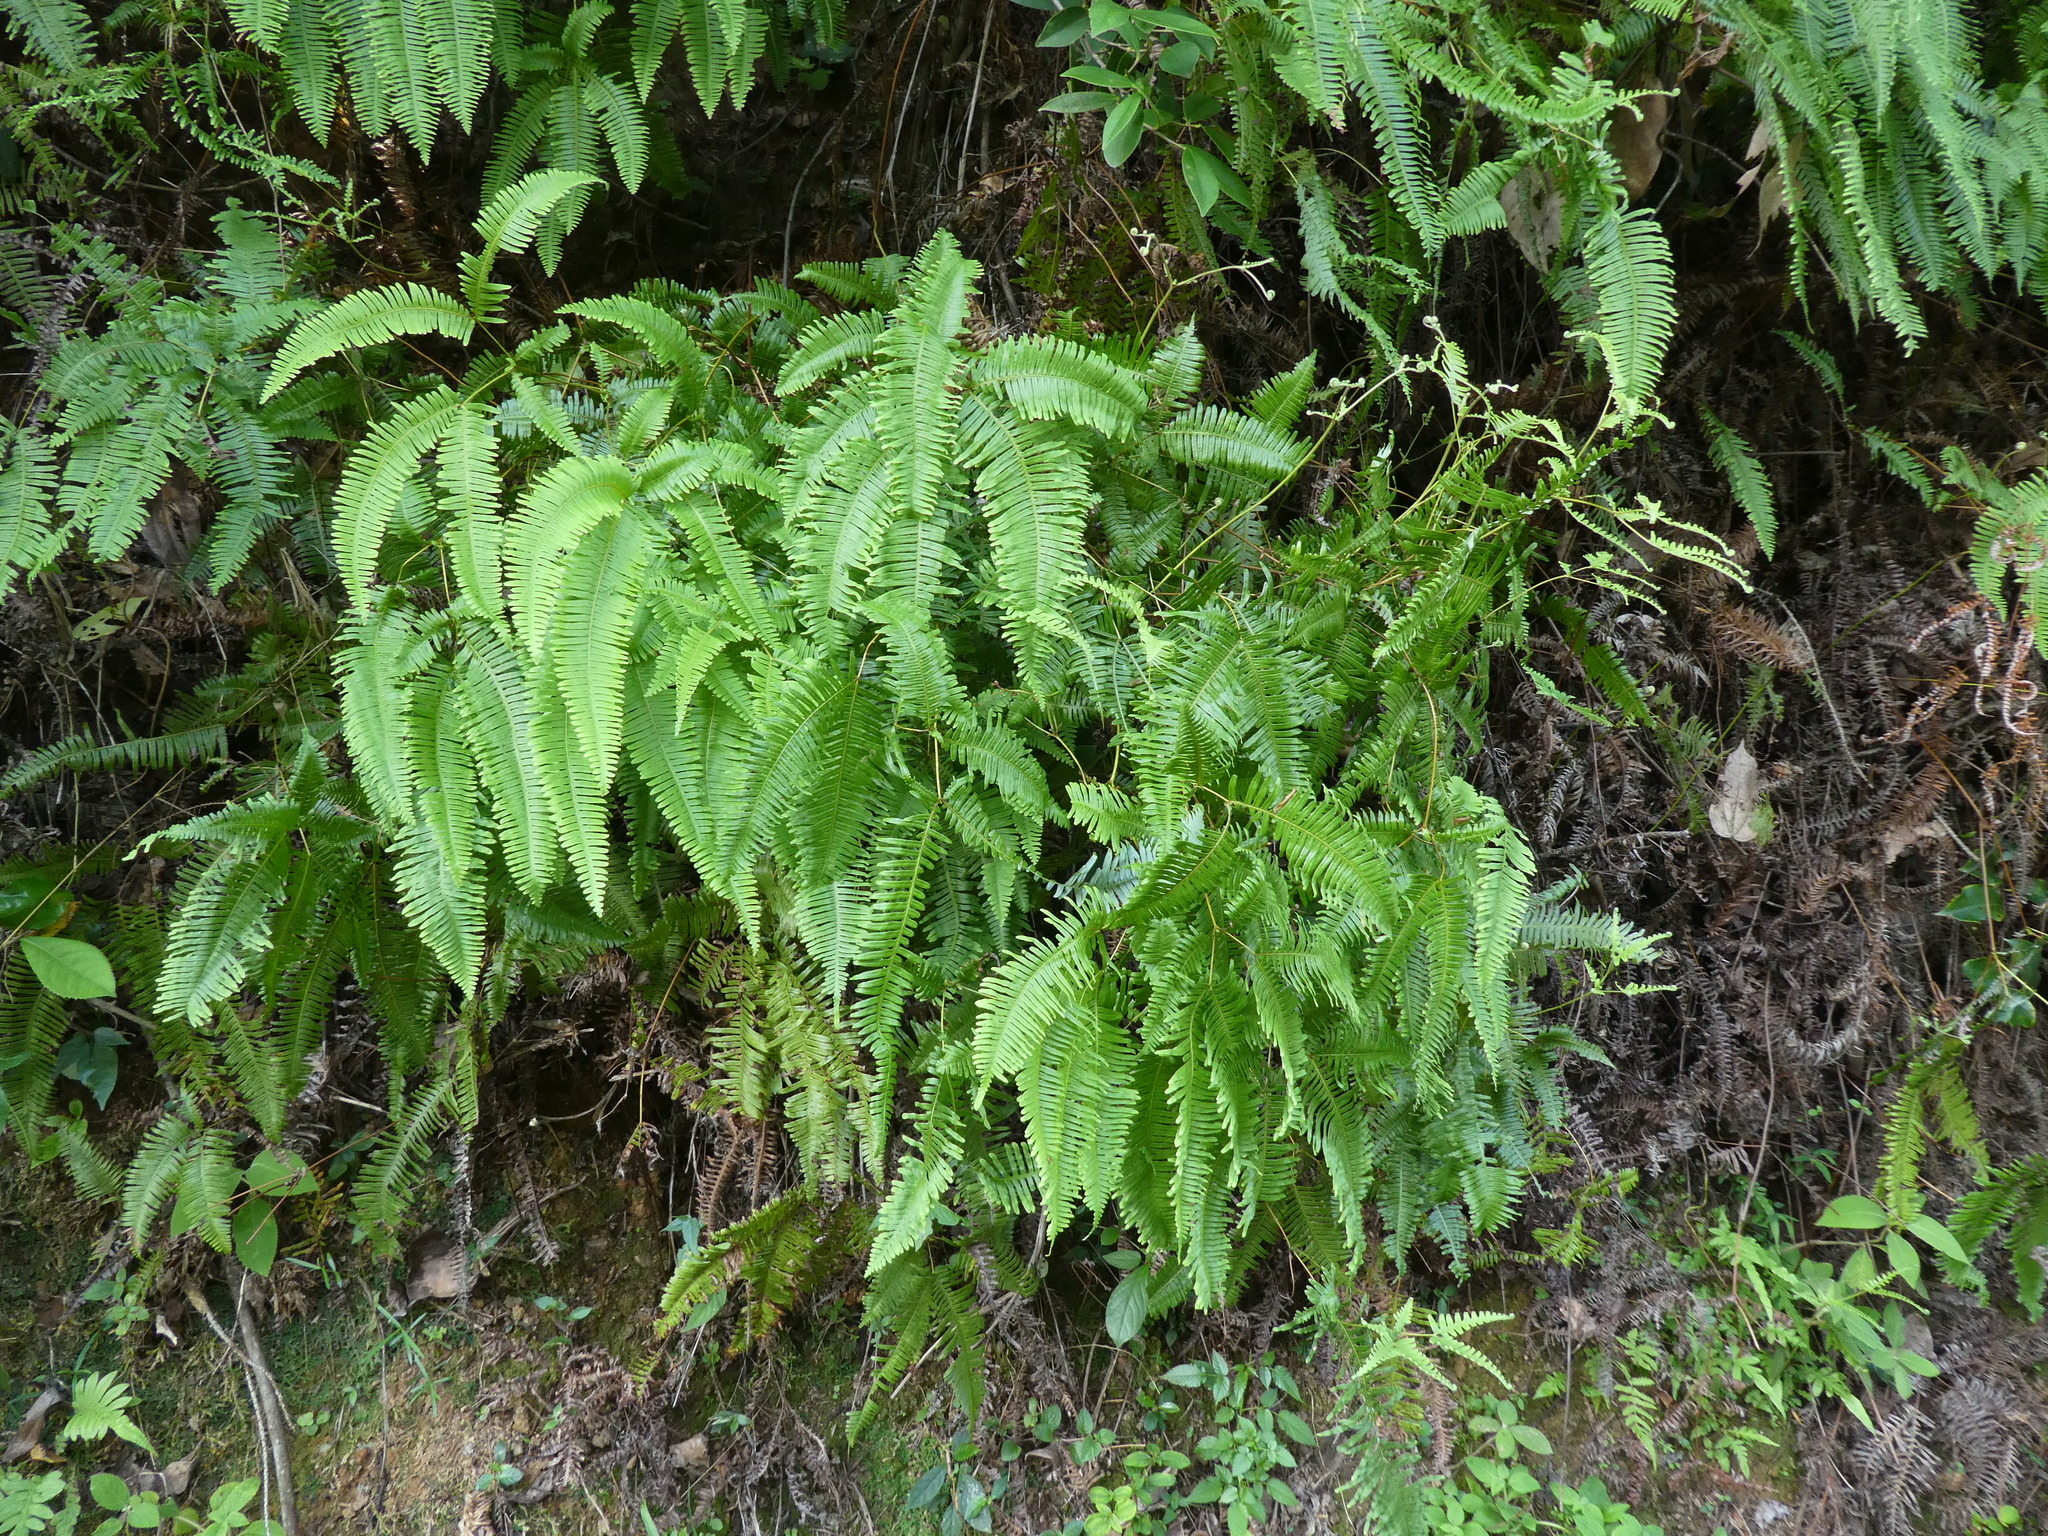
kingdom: Plantae
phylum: Tracheophyta
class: Polypodiopsida
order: Gleicheniales
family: Gleicheniaceae
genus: Dicranopteris
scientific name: Dicranopteris pedata
